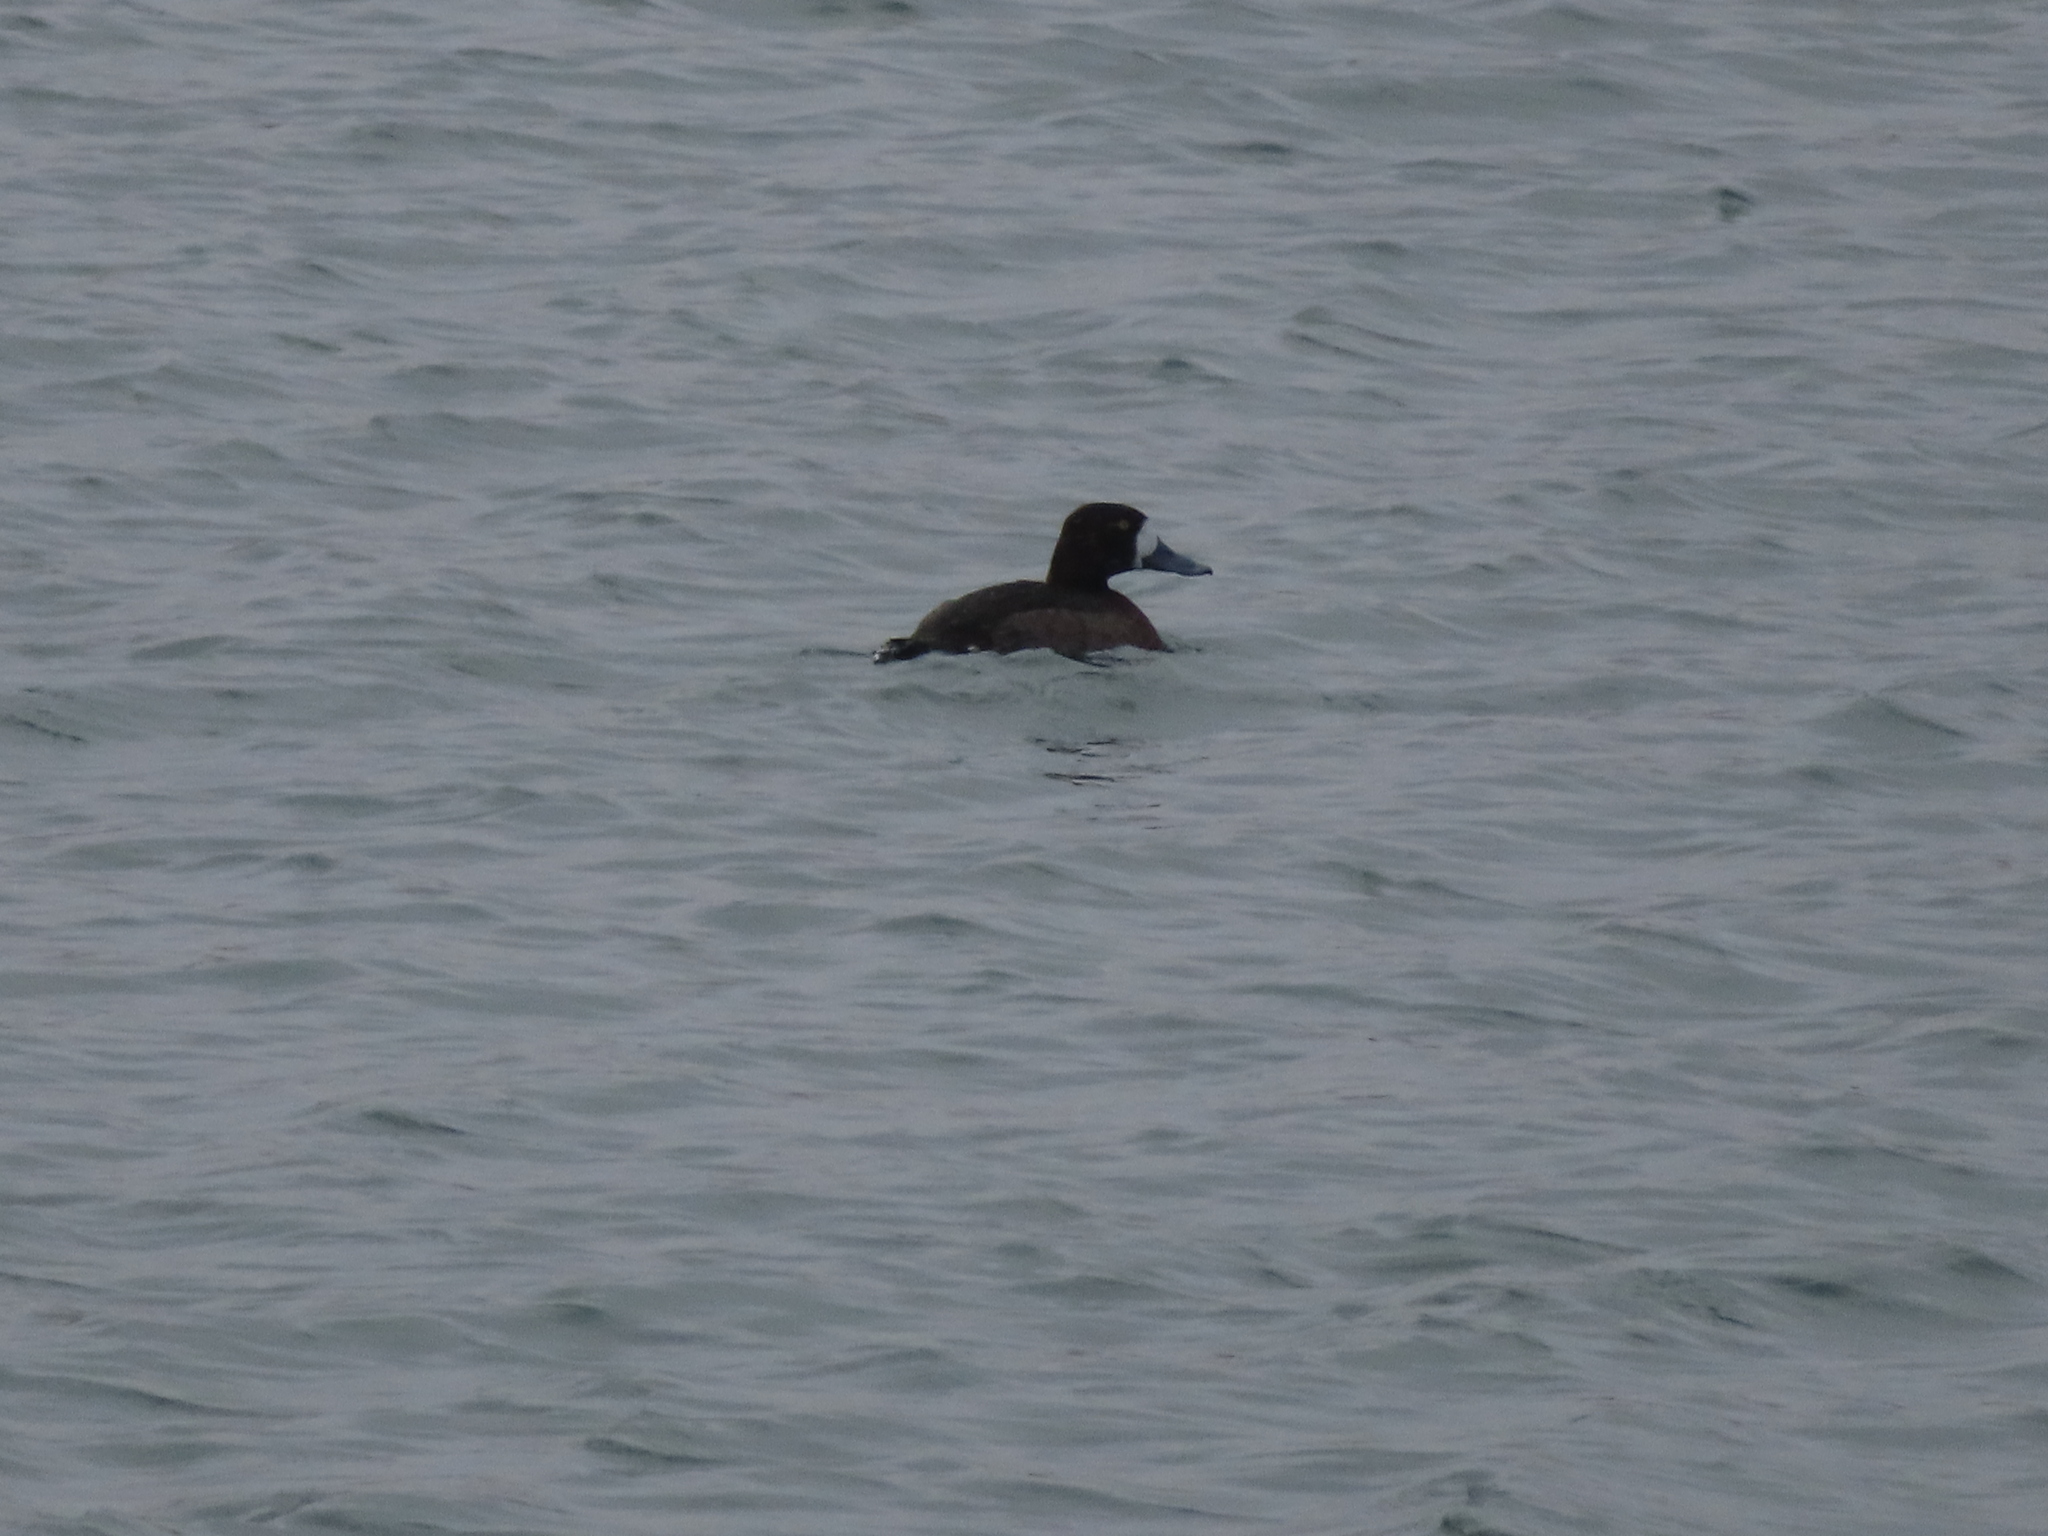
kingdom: Animalia
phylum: Chordata
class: Aves
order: Anseriformes
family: Anatidae
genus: Aythya
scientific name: Aythya affinis
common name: Lesser scaup
